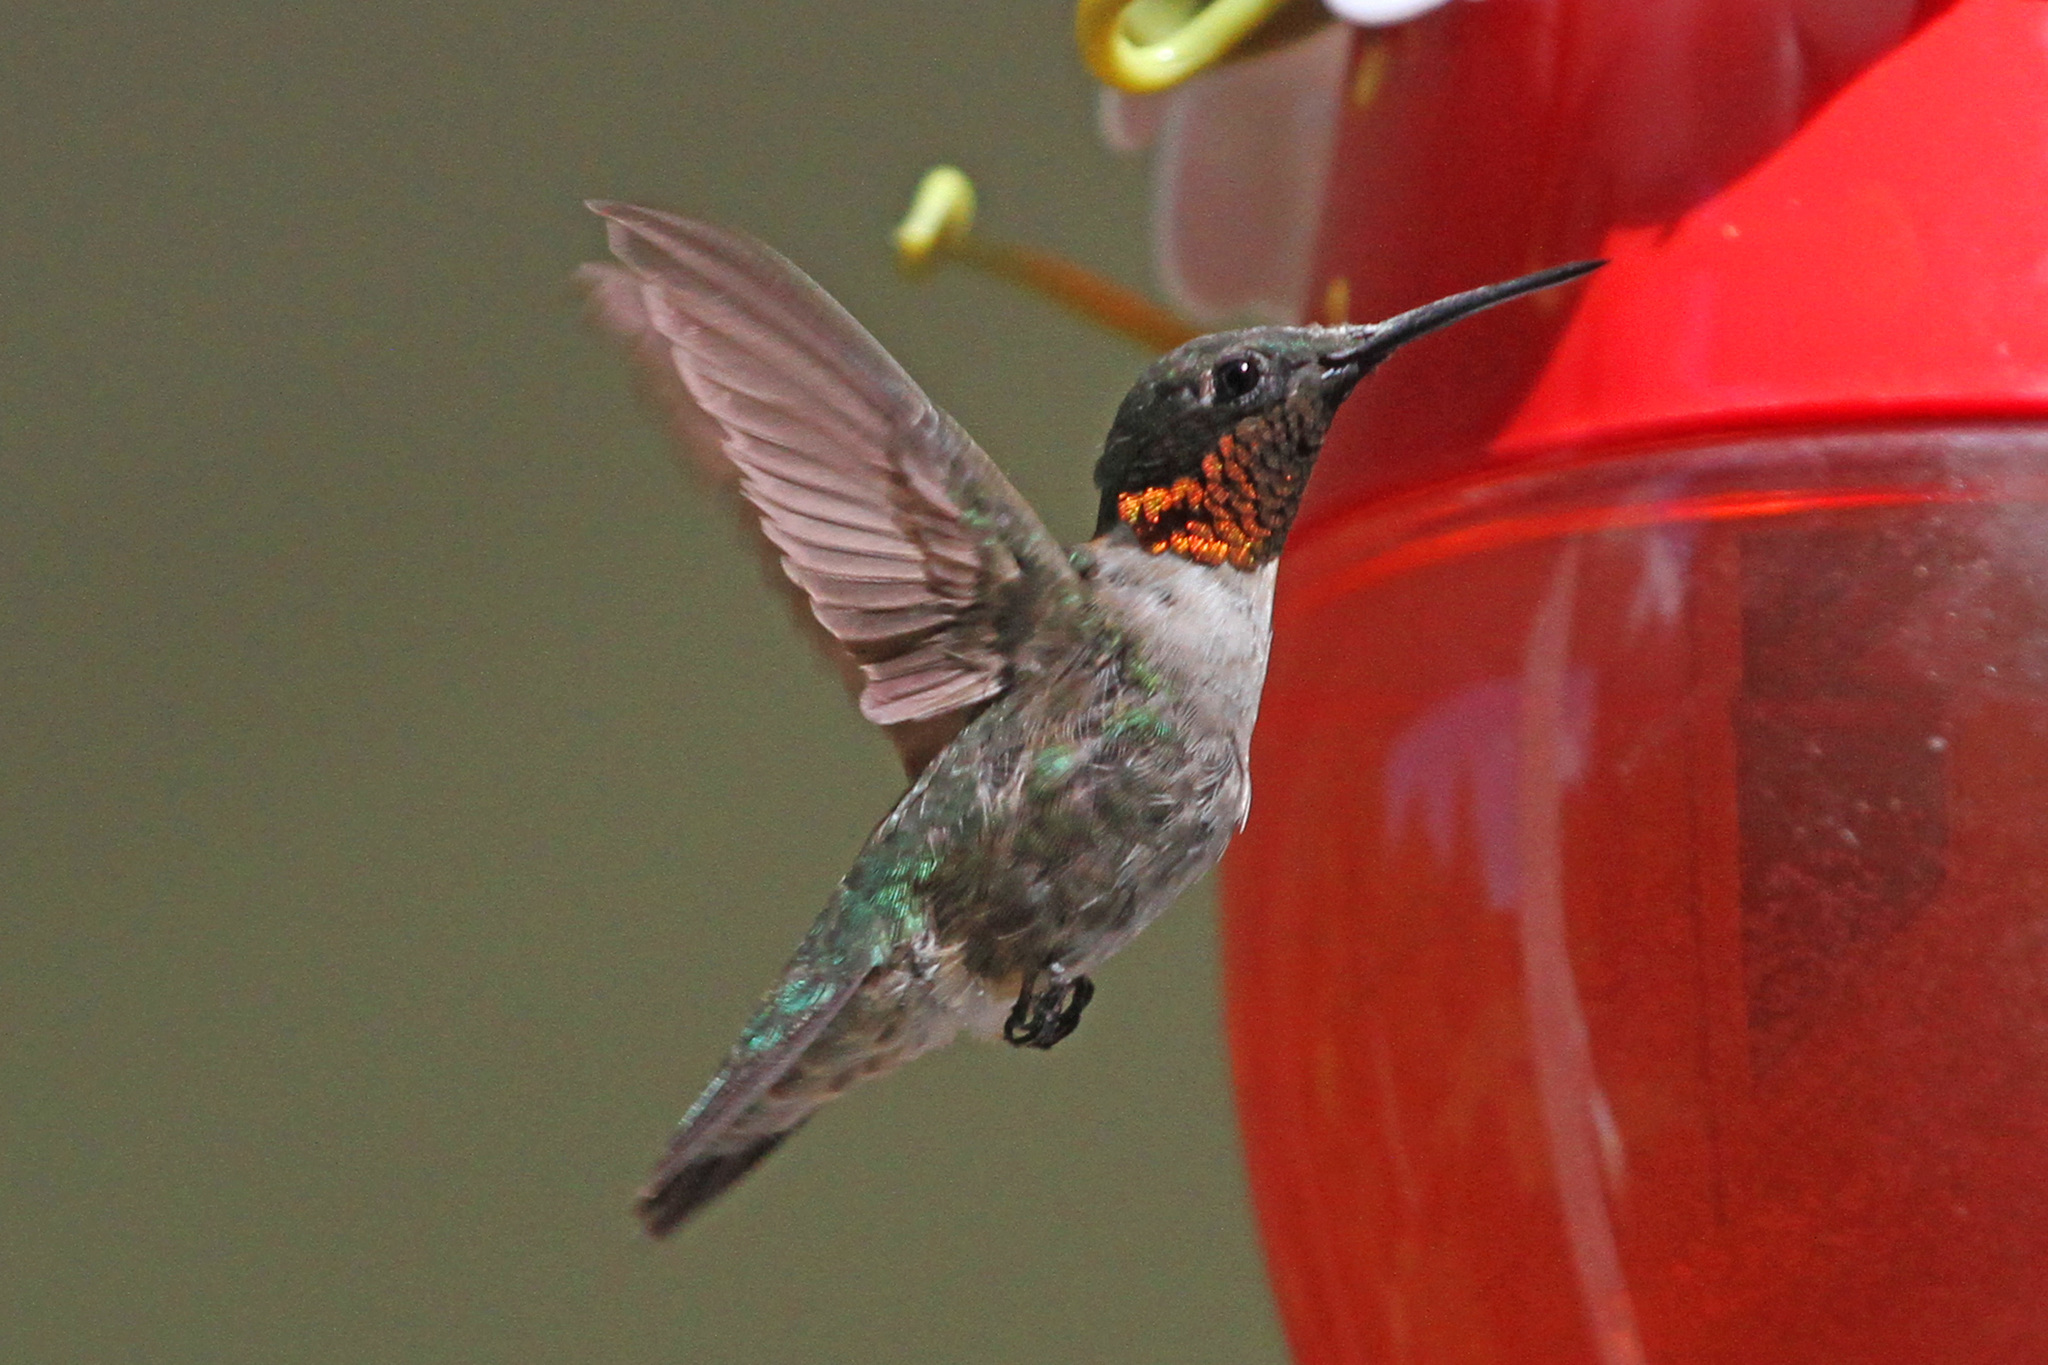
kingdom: Animalia
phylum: Chordata
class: Aves
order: Apodiformes
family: Trochilidae
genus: Archilochus
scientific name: Archilochus colubris
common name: Ruby-throated hummingbird
